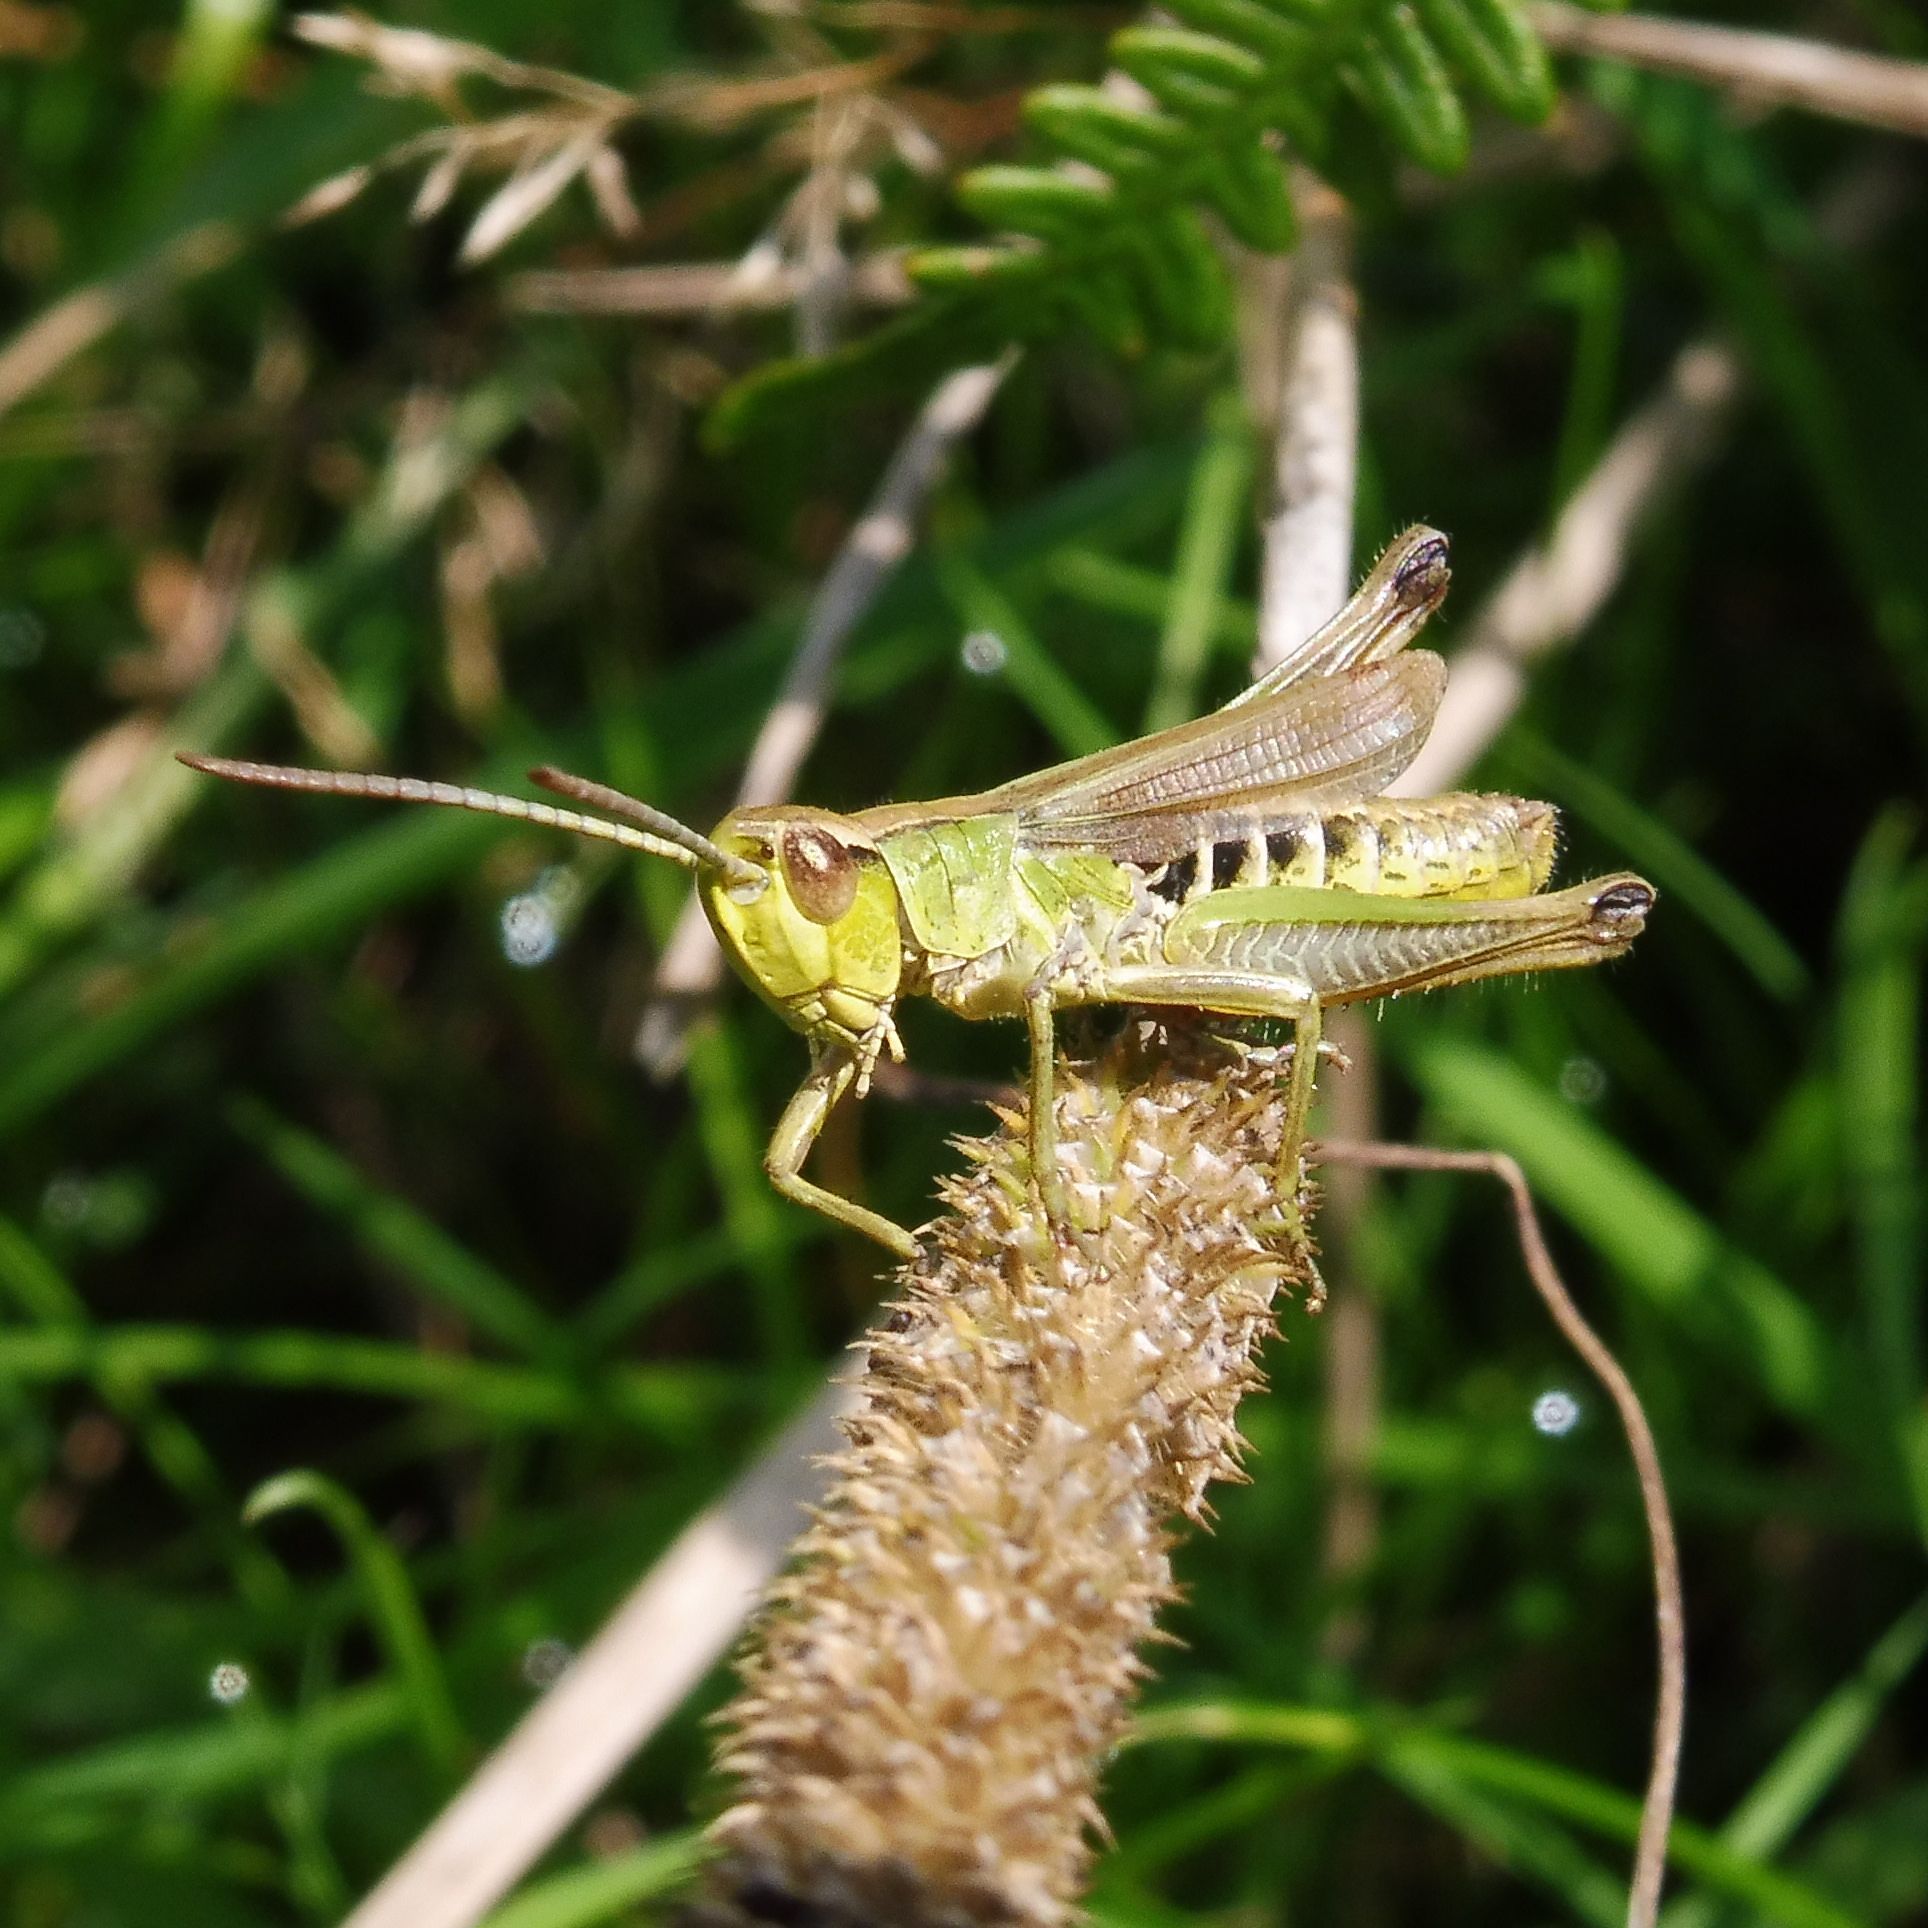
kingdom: Animalia
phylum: Arthropoda
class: Insecta
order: Orthoptera
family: Acrididae
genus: Pseudochorthippus
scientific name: Pseudochorthippus parallelus
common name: Meadow grasshopper
